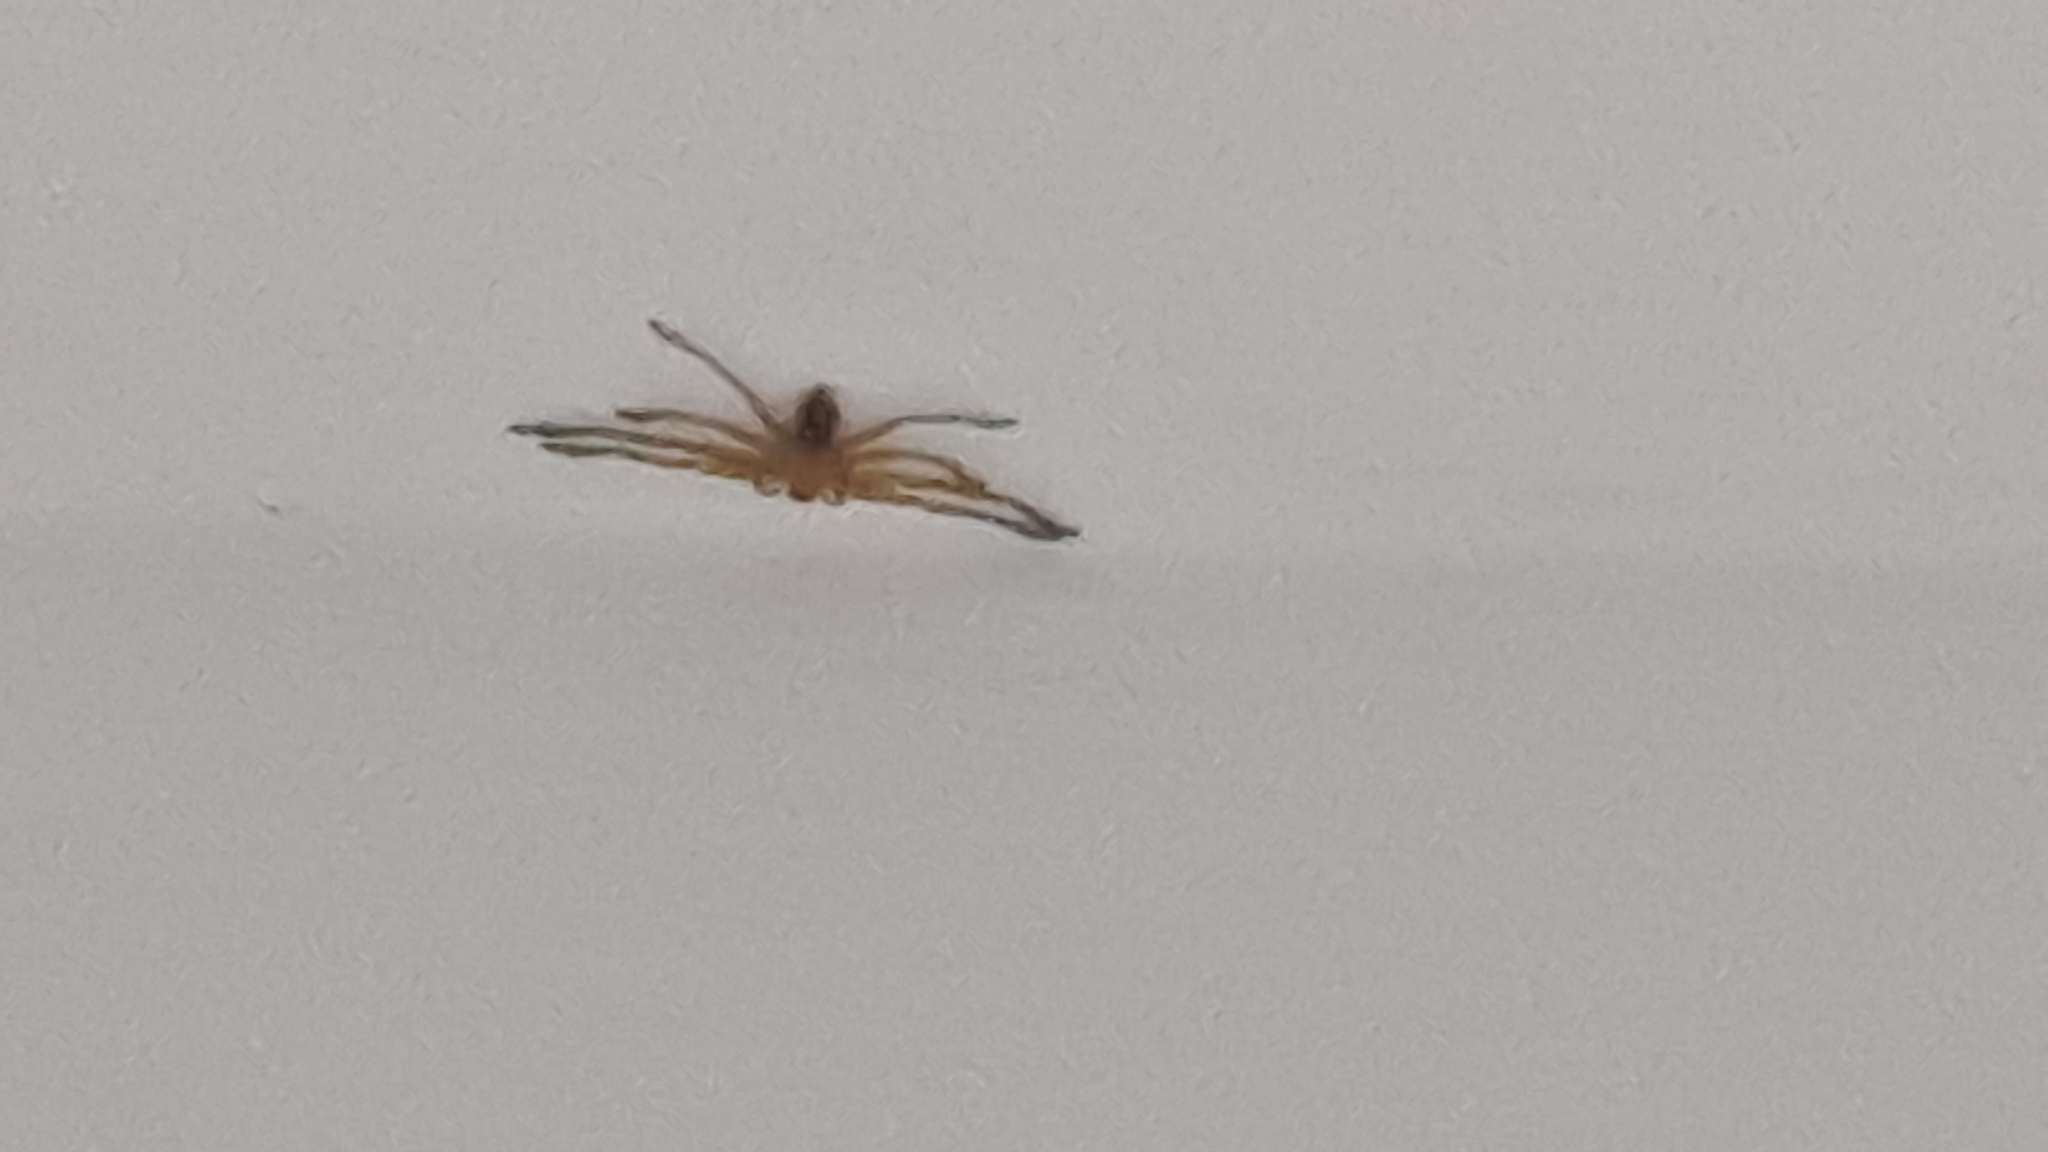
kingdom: Animalia
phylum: Arthropoda
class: Arachnida
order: Araneae
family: Sparassidae
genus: Olios
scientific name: Olios argelasius
